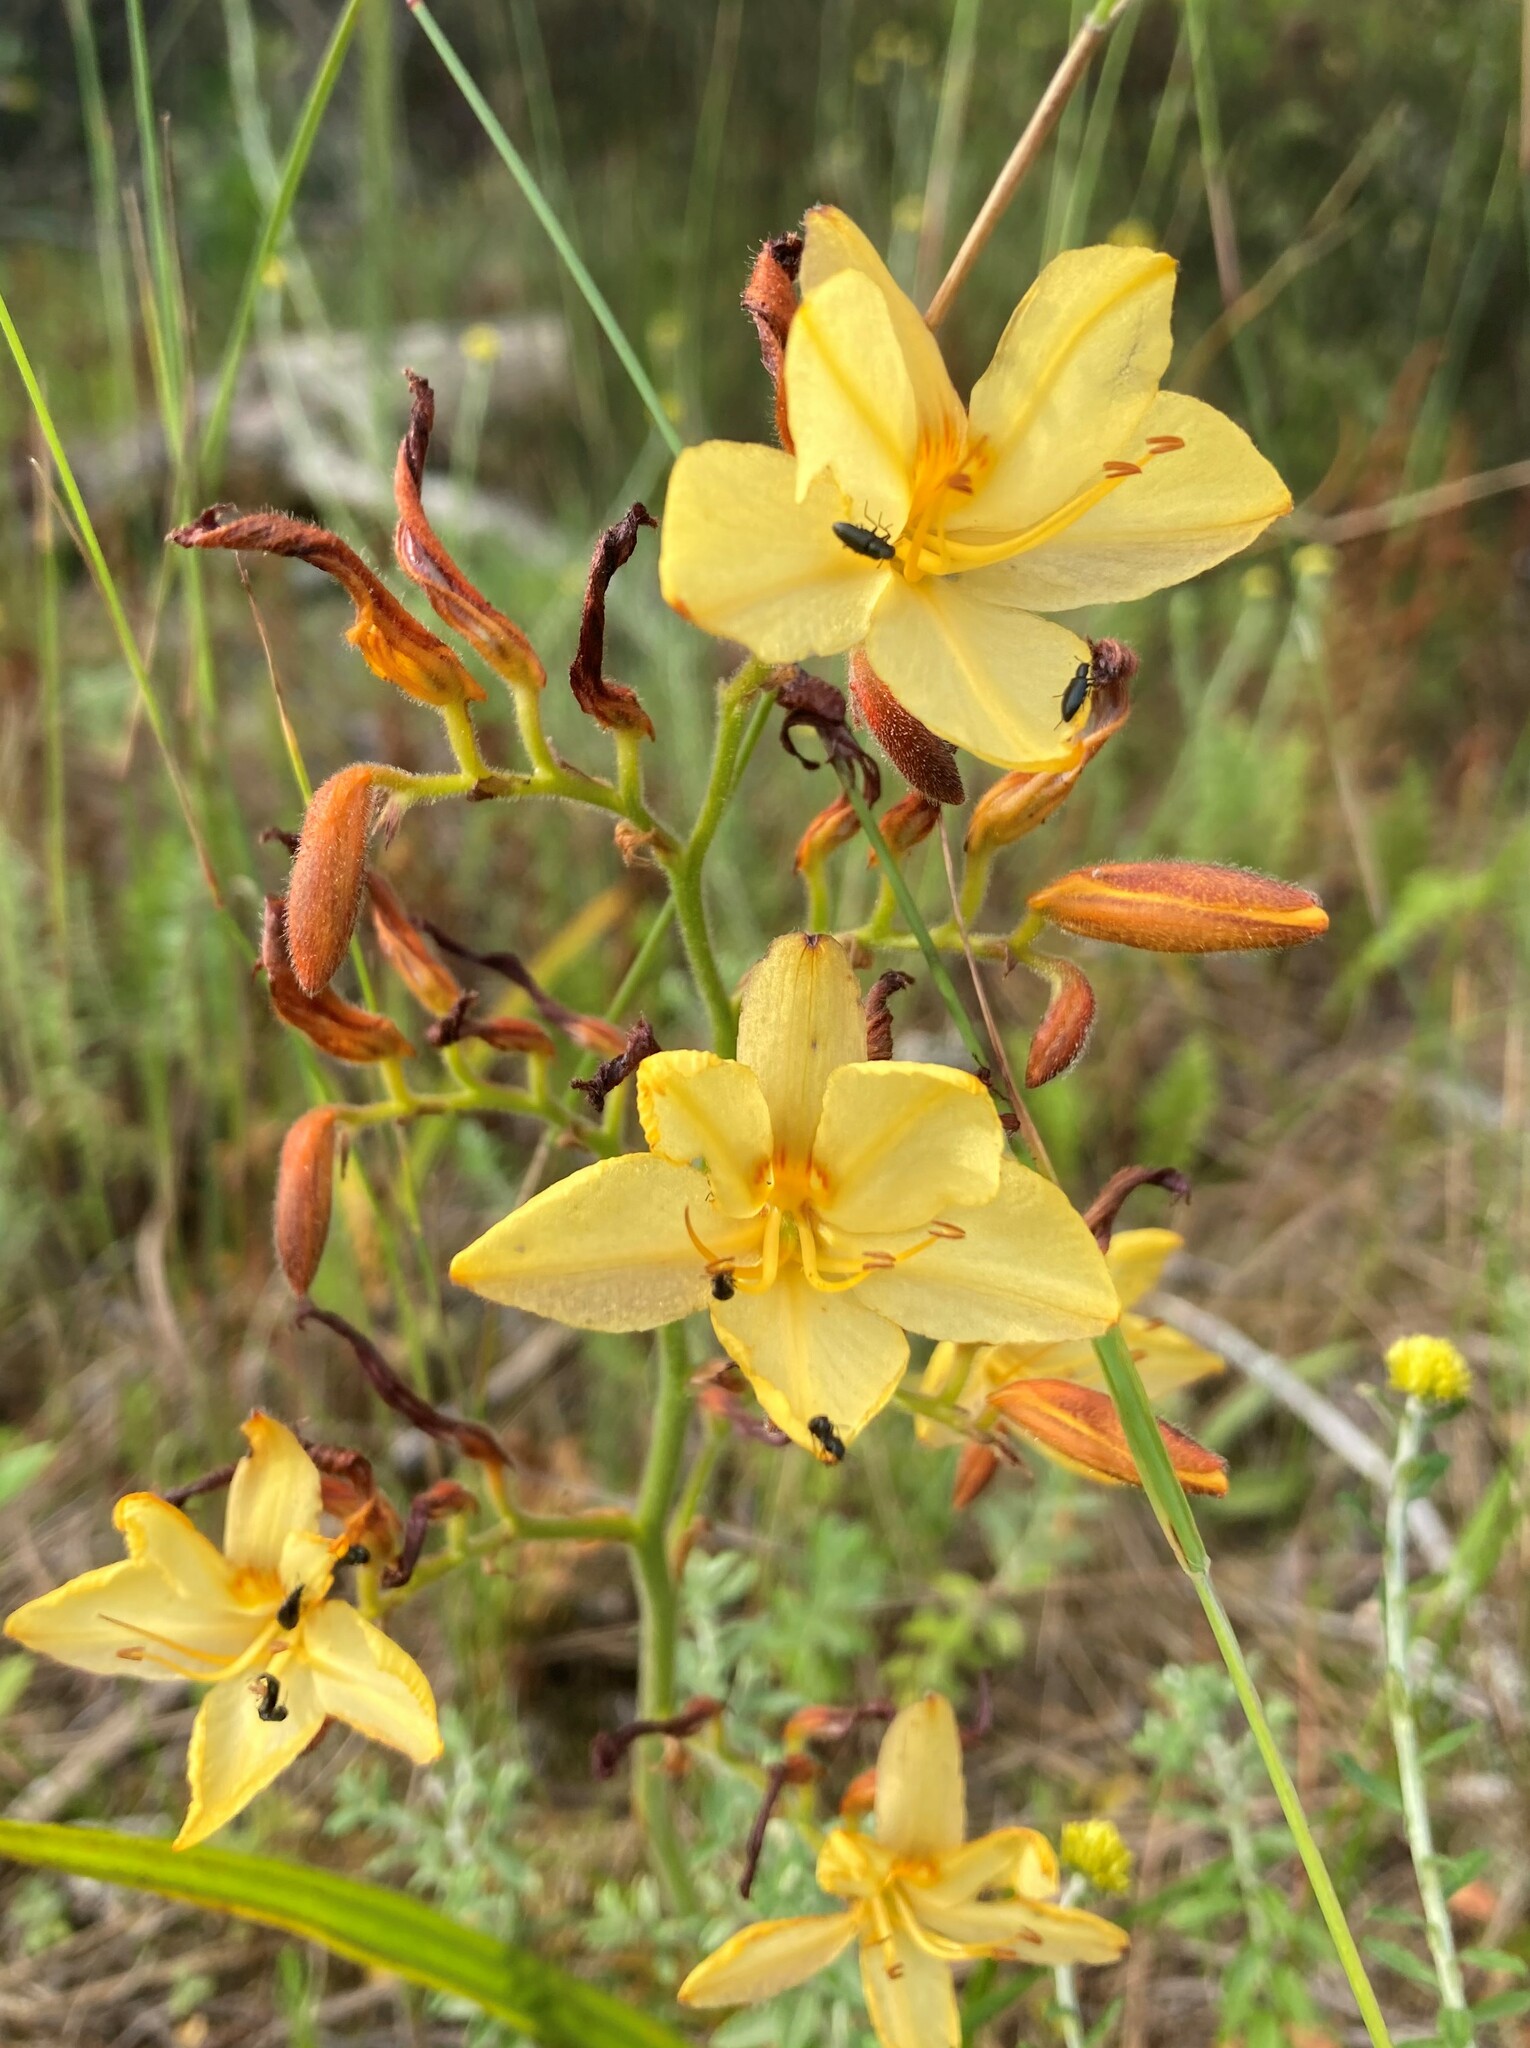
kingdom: Plantae
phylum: Tracheophyta
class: Liliopsida
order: Commelinales
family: Haemodoraceae
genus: Wachendorfia
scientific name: Wachendorfia paniculata
